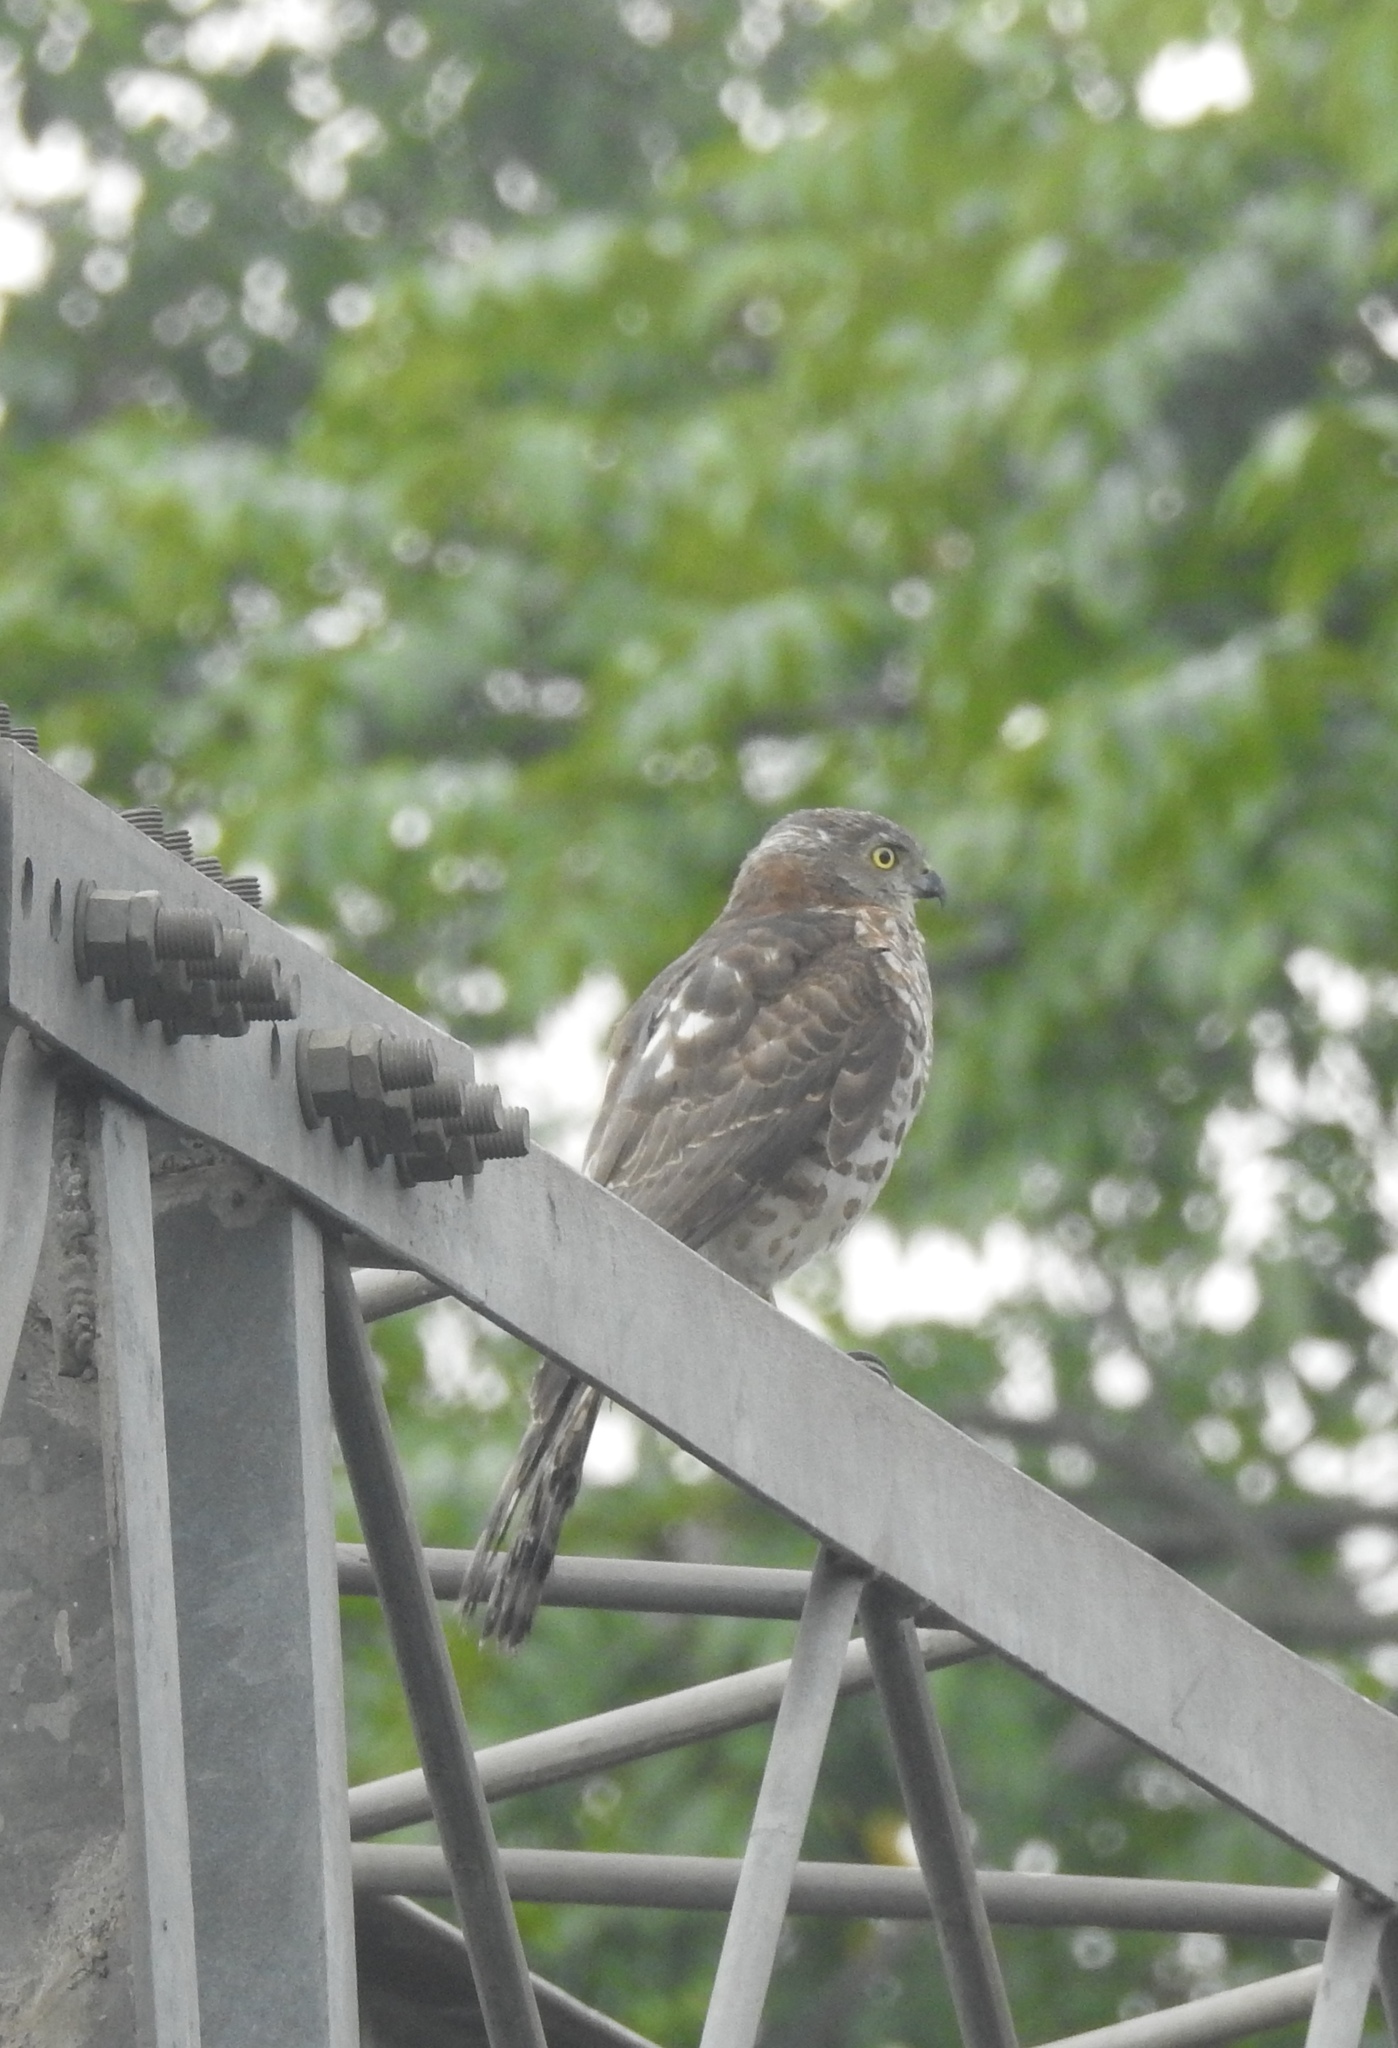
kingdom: Animalia
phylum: Chordata
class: Aves
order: Accipitriformes
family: Accipitridae
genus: Accipiter
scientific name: Accipiter badius
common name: Shikra
